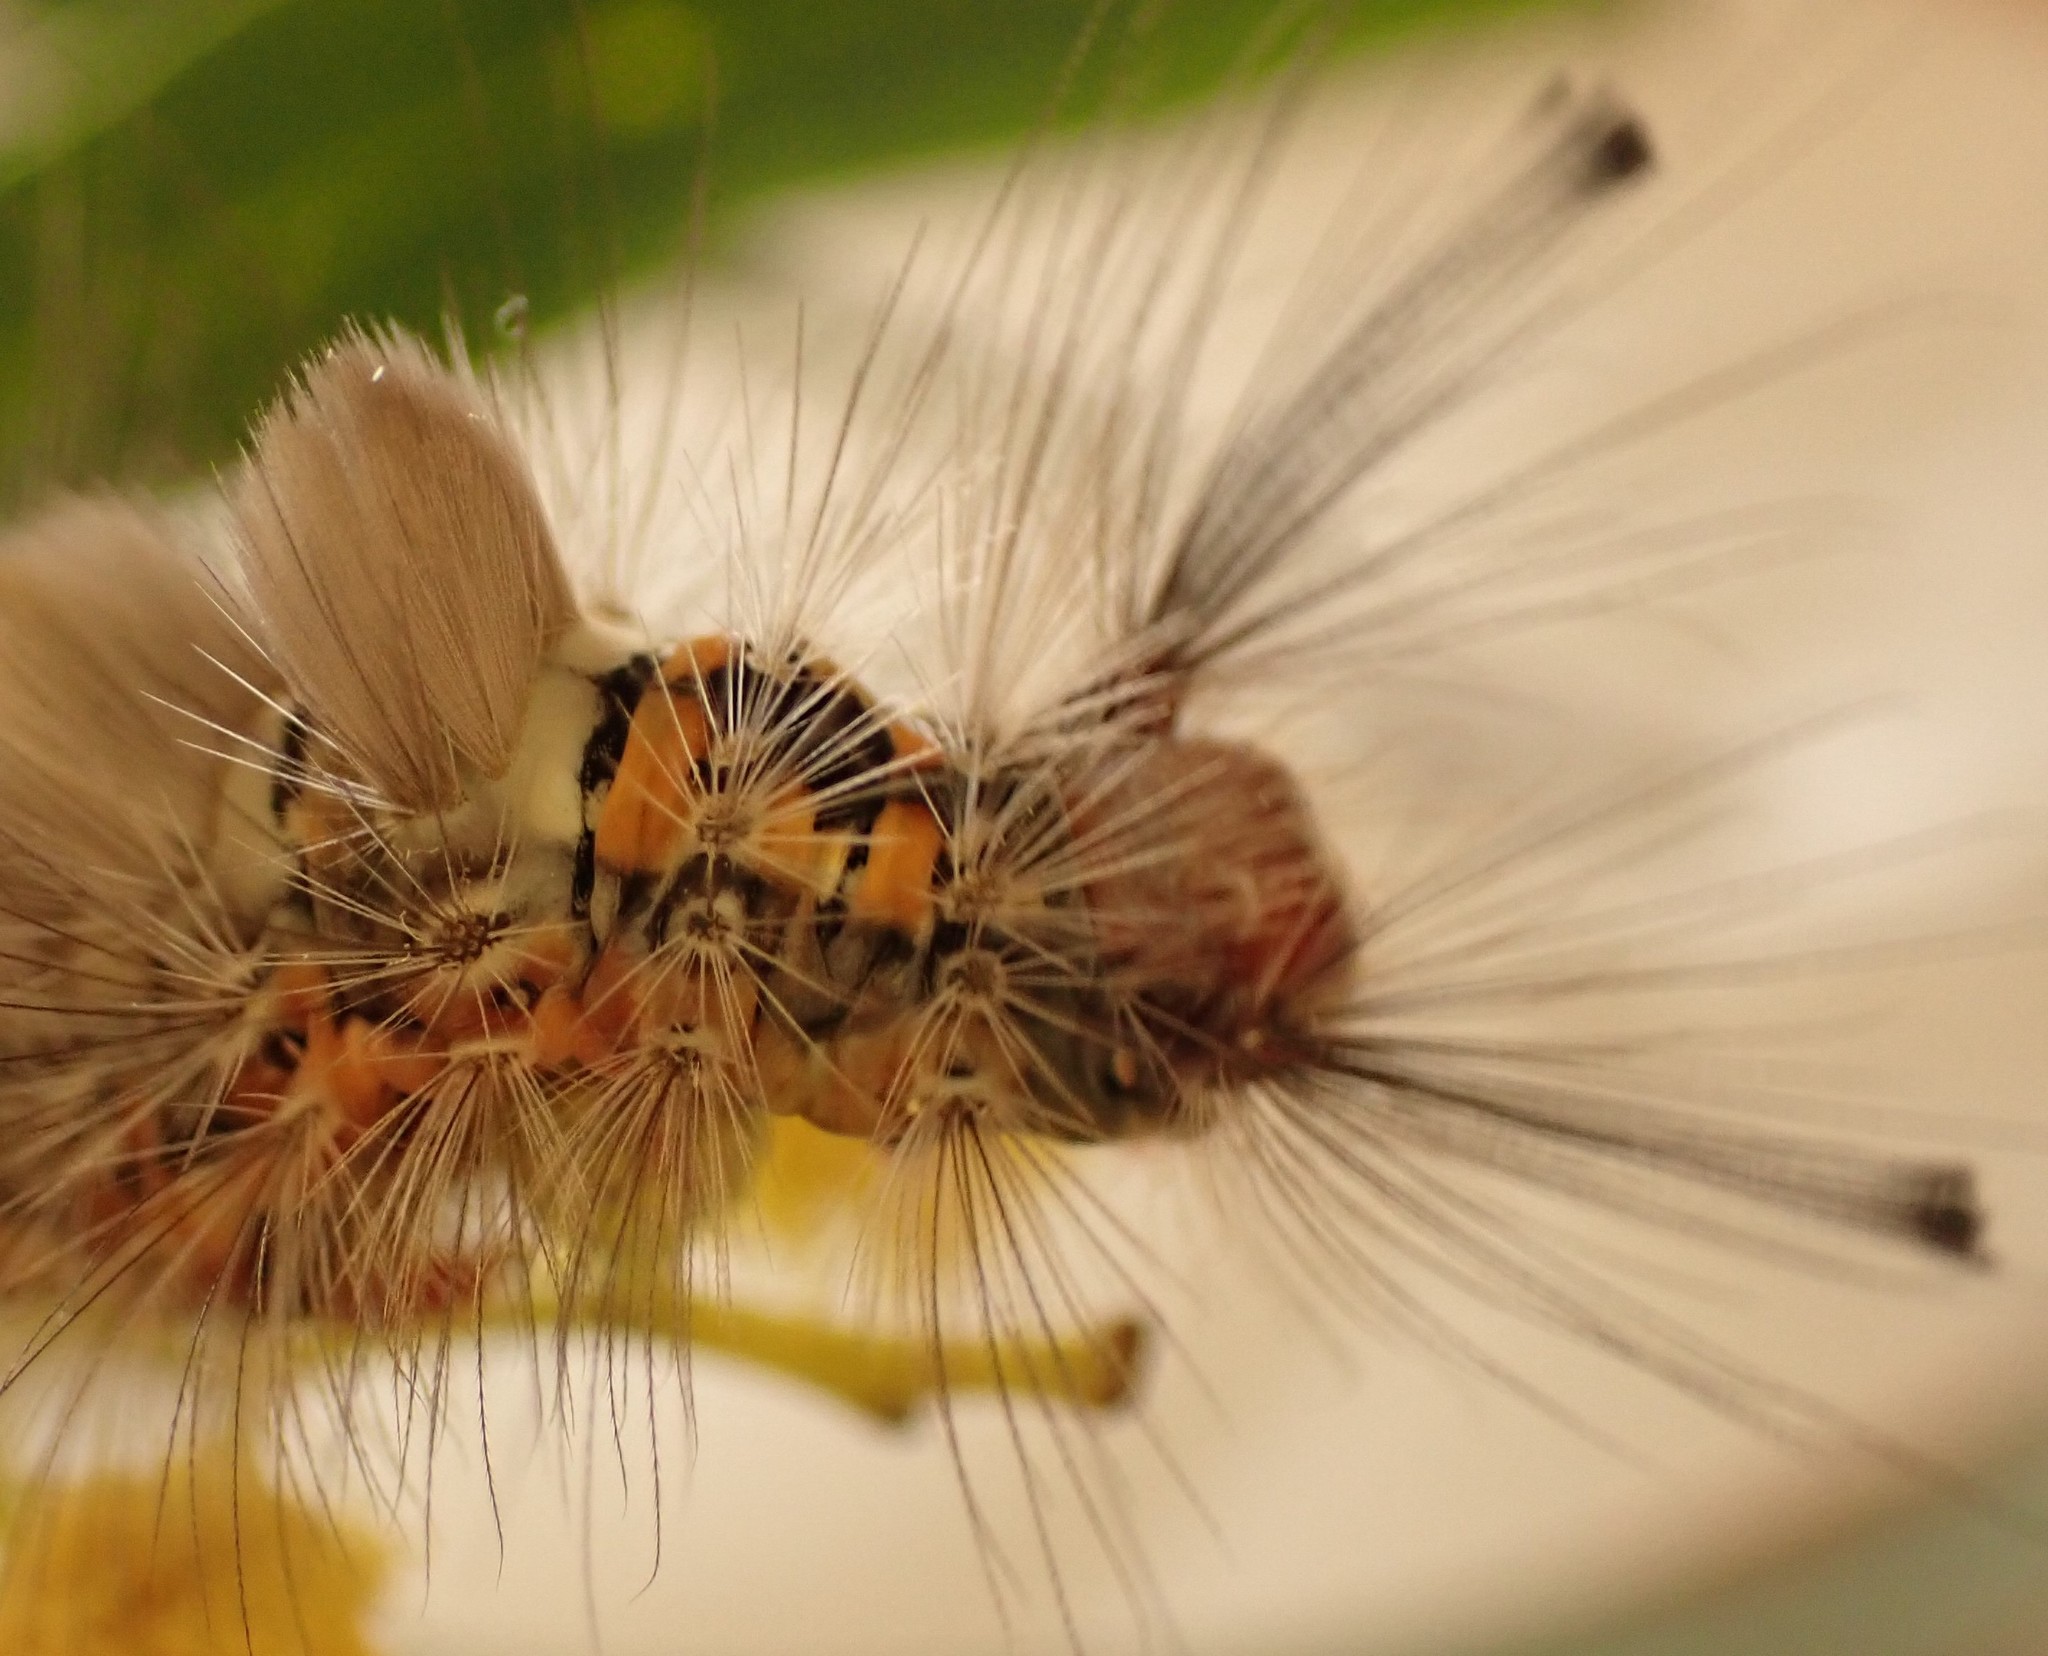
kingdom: Animalia
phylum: Arthropoda
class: Insecta
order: Lepidoptera
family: Erebidae
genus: Orgyia
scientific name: Orgyia
